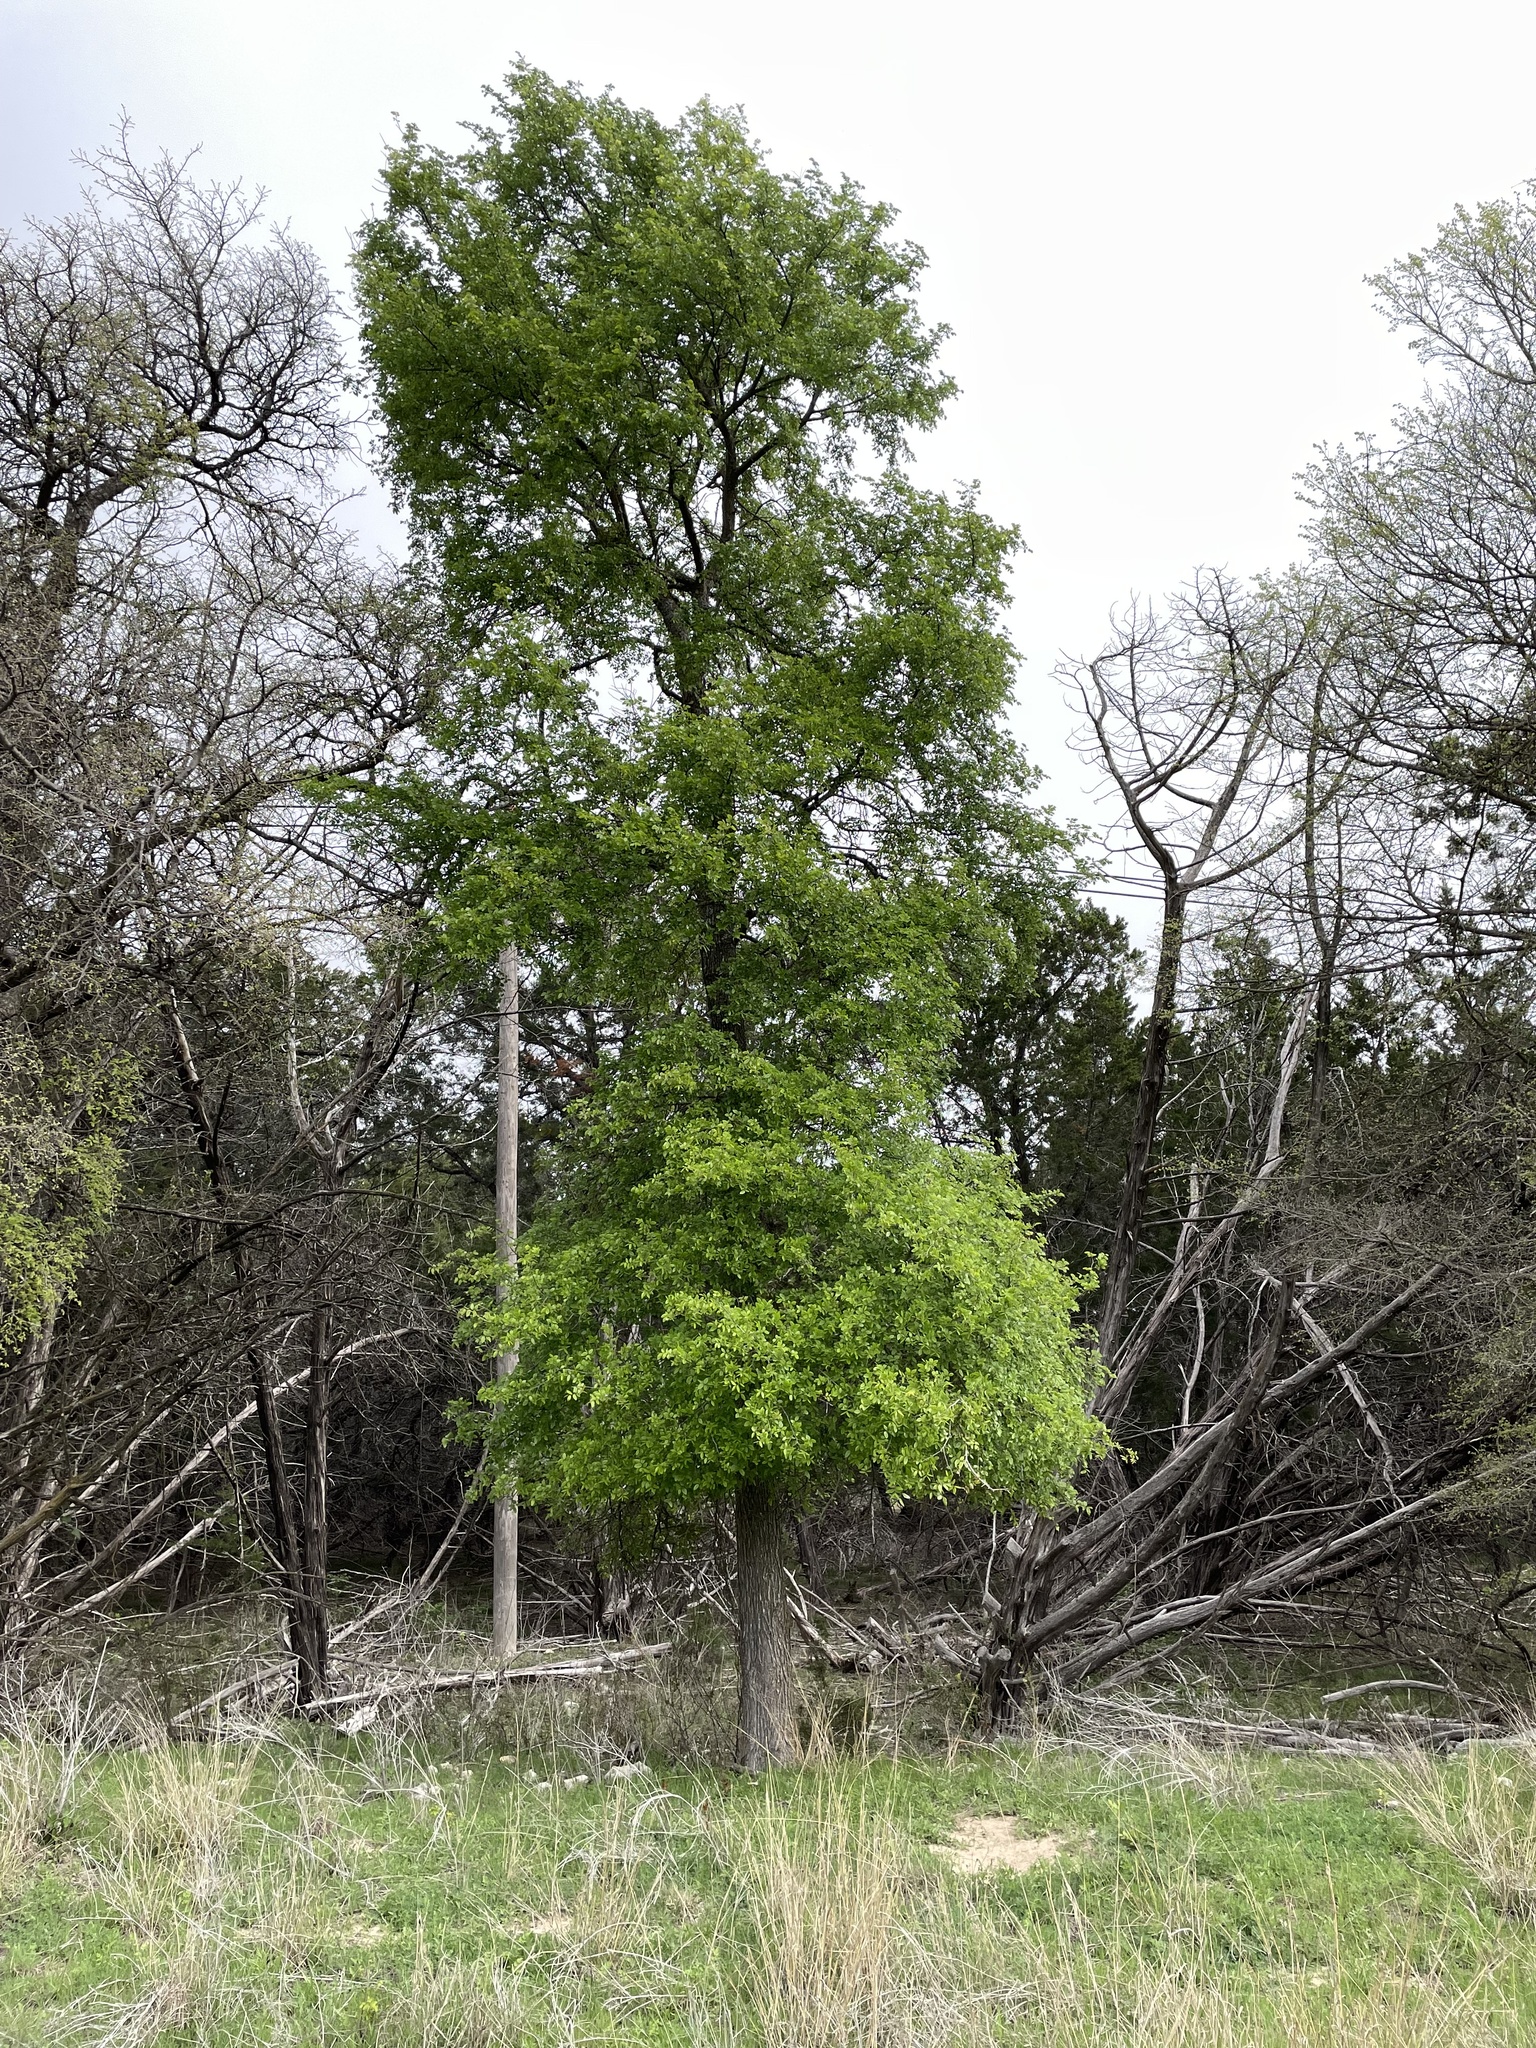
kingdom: Plantae
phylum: Tracheophyta
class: Magnoliopsida
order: Rosales
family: Ulmaceae
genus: Ulmus
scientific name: Ulmus crassifolia
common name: Basket elm
